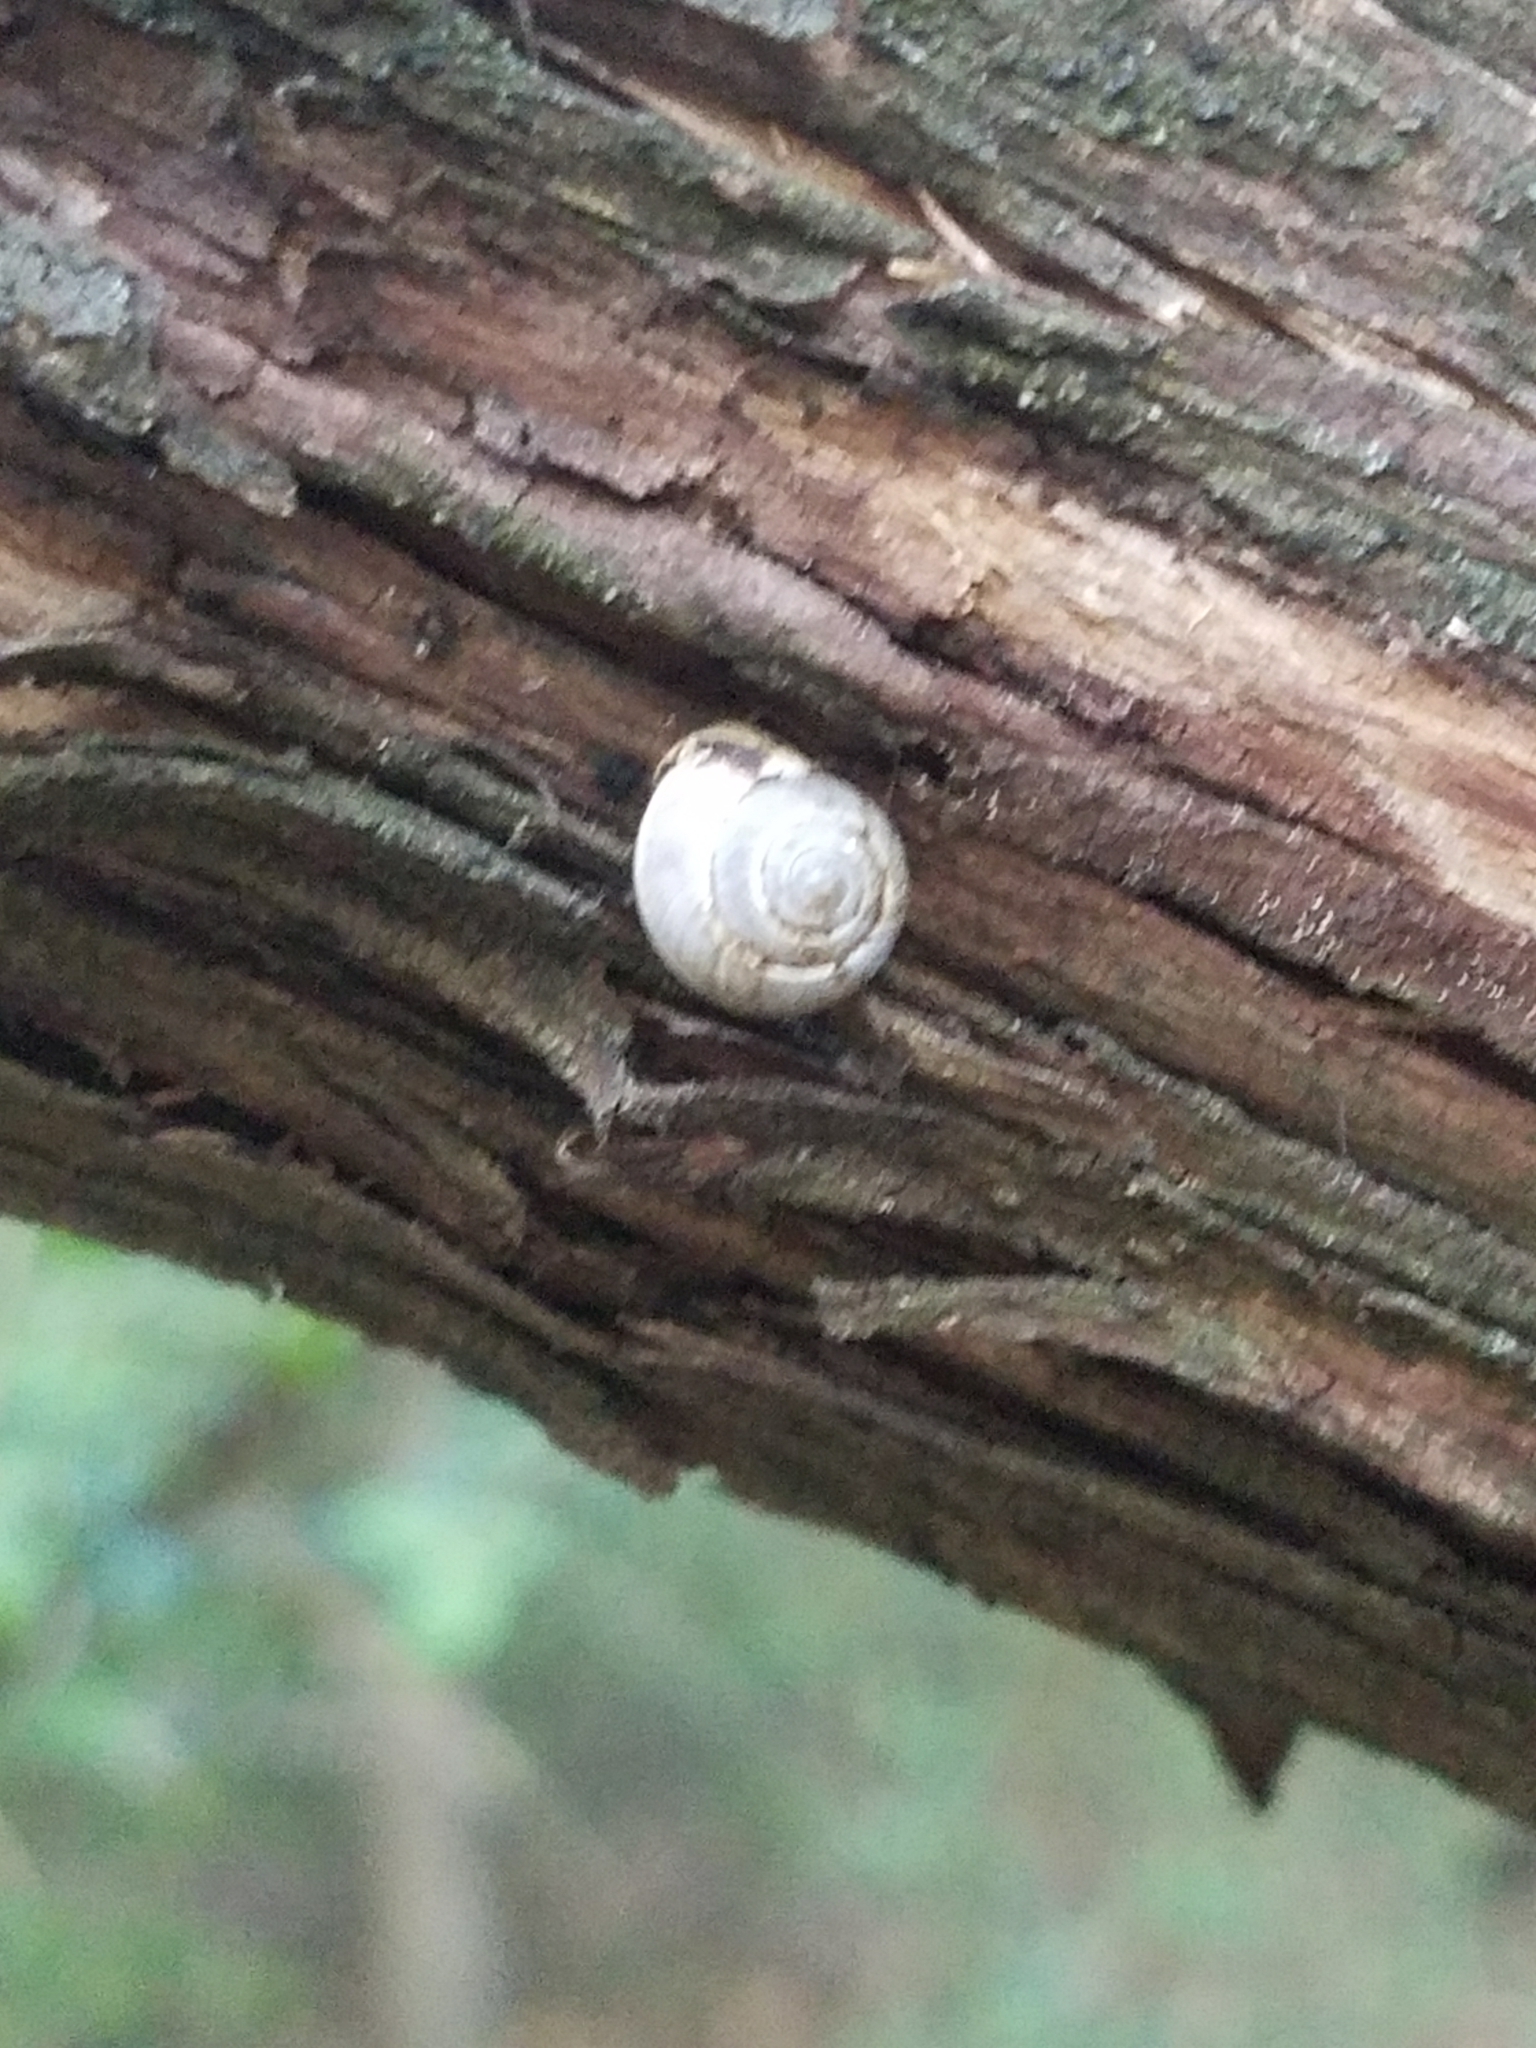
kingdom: Animalia
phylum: Mollusca
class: Gastropoda
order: Cycloneritida
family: Helicinidae
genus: Helicina
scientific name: Helicina orbiculata
